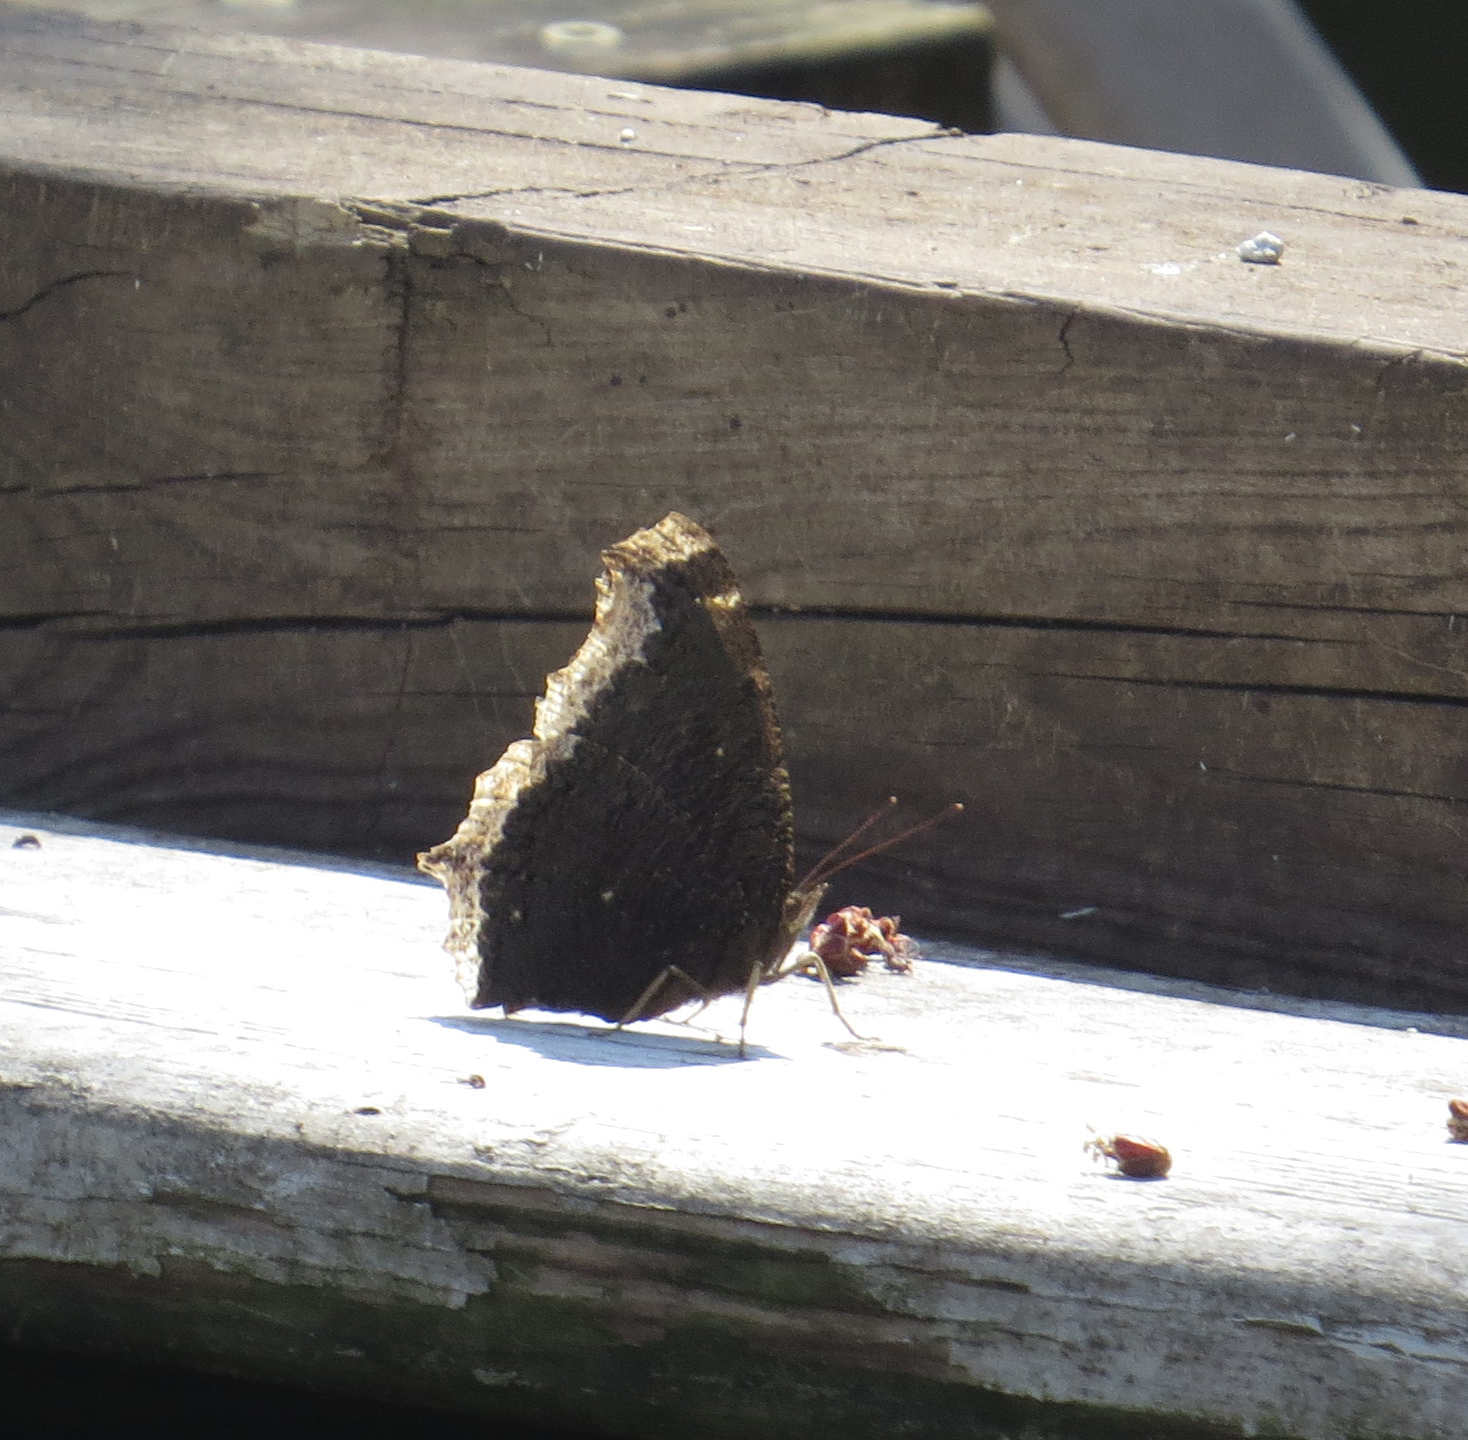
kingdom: Animalia
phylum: Arthropoda
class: Insecta
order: Lepidoptera
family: Nymphalidae
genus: Nymphalis
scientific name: Nymphalis antiopa
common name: Camberwell beauty
